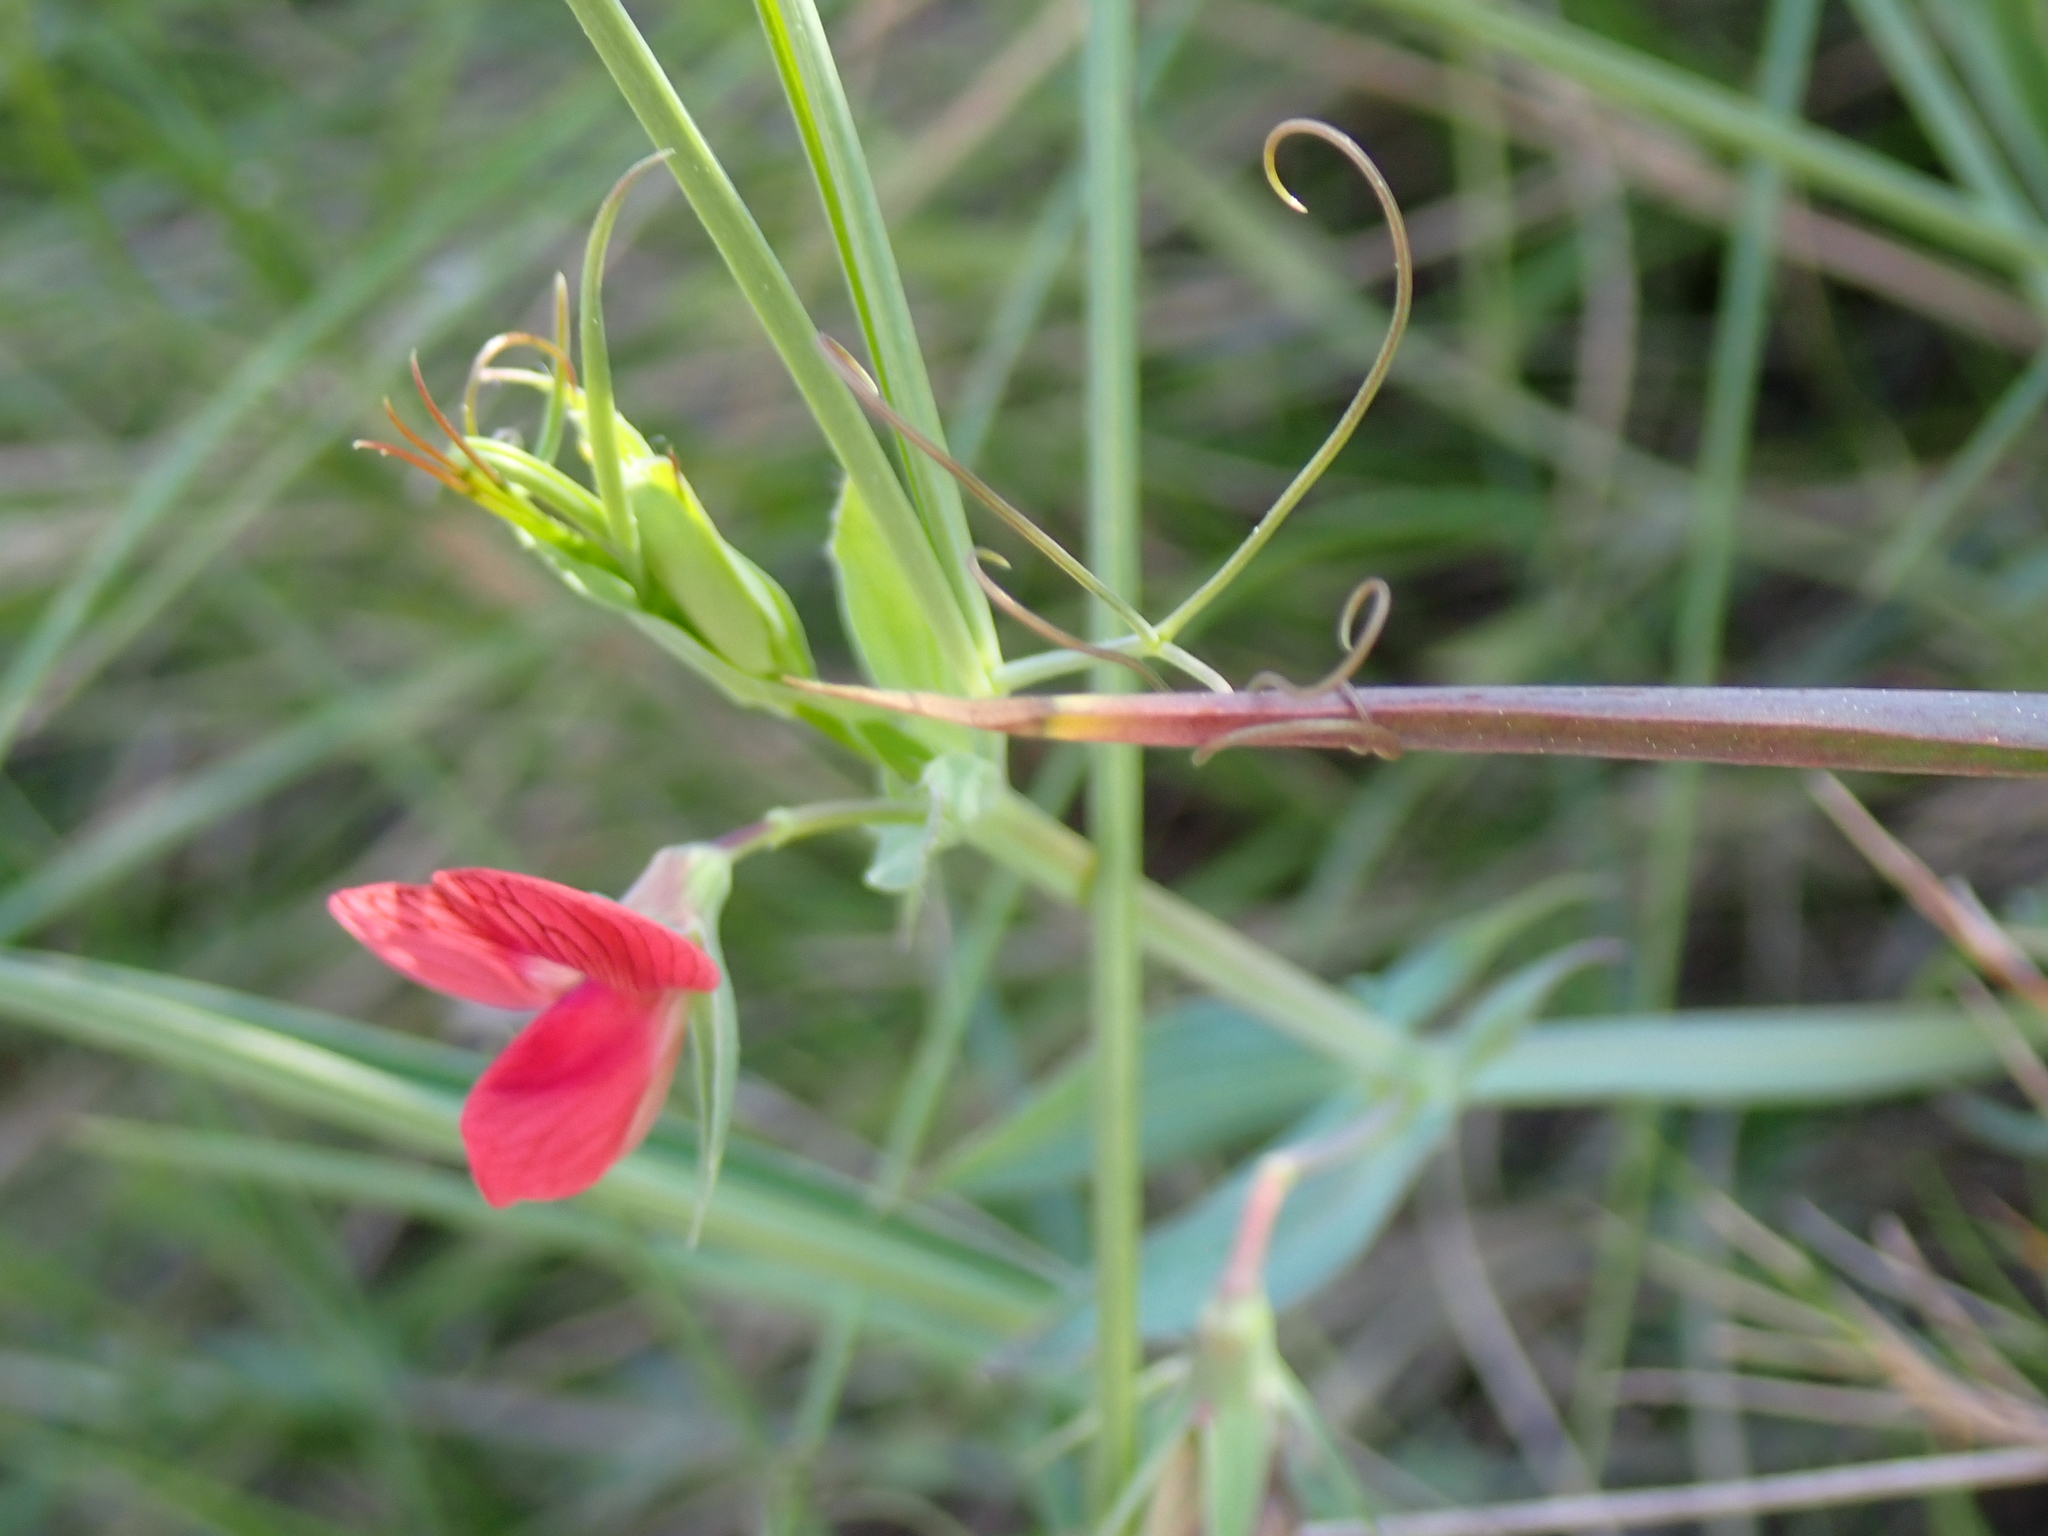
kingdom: Plantae
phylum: Tracheophyta
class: Magnoliopsida
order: Fabales
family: Fabaceae
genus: Lathyrus
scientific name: Lathyrus cicera
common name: Red vetchling
